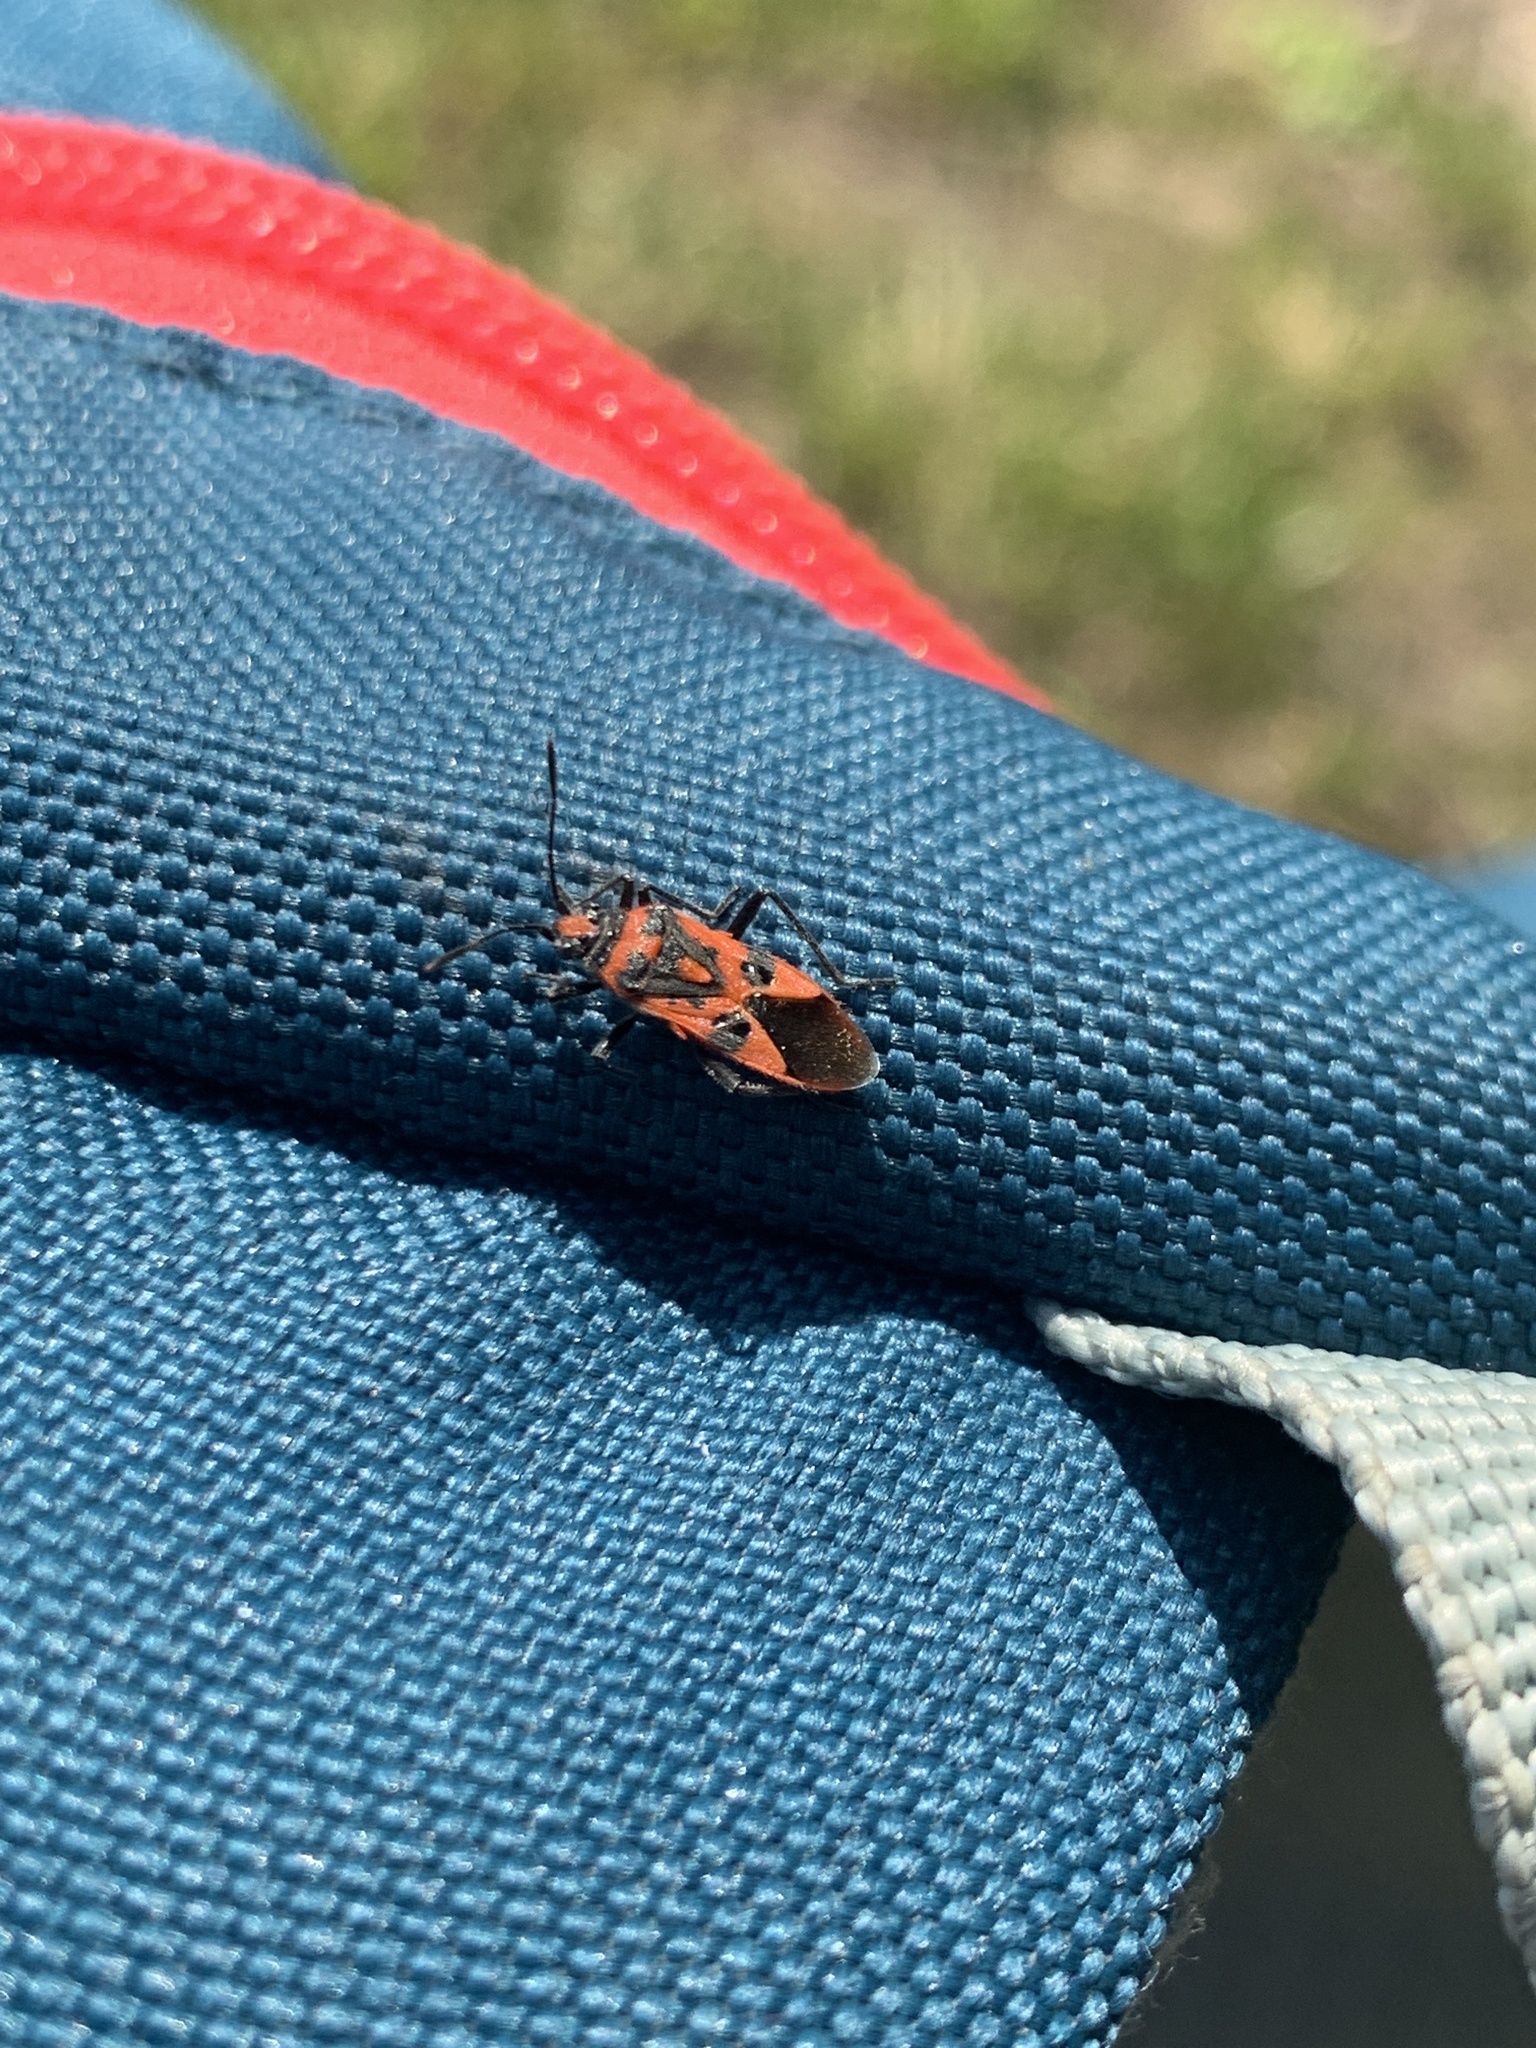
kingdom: Animalia
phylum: Arthropoda
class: Insecta
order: Hemiptera
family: Rhopalidae
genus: Corizus
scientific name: Corizus hyoscyami
